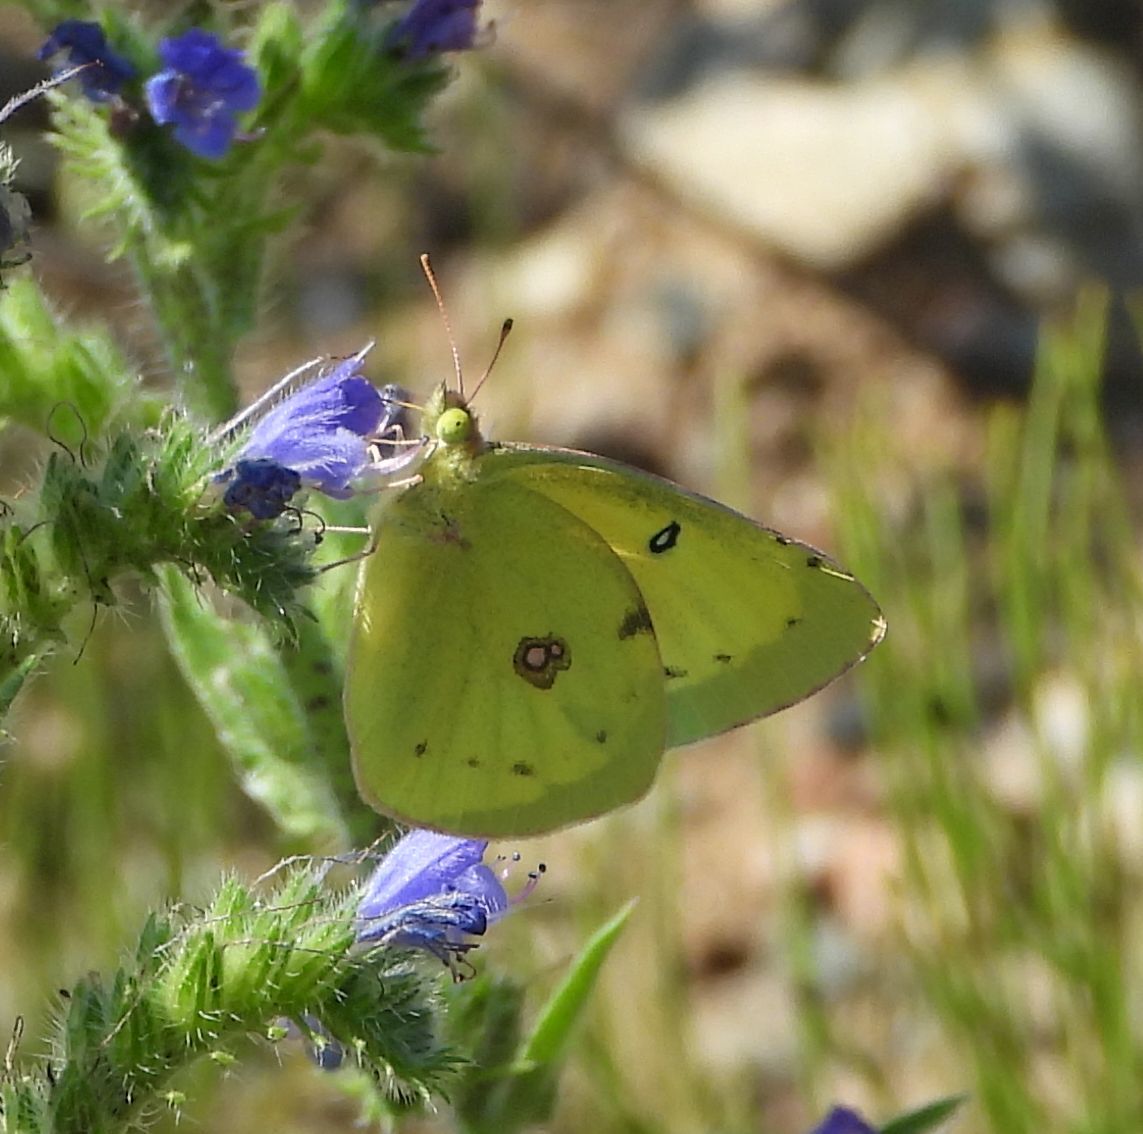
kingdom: Animalia
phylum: Arthropoda
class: Insecta
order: Lepidoptera
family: Pieridae
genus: Colias
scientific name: Colias philodice
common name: Clouded sulphur
